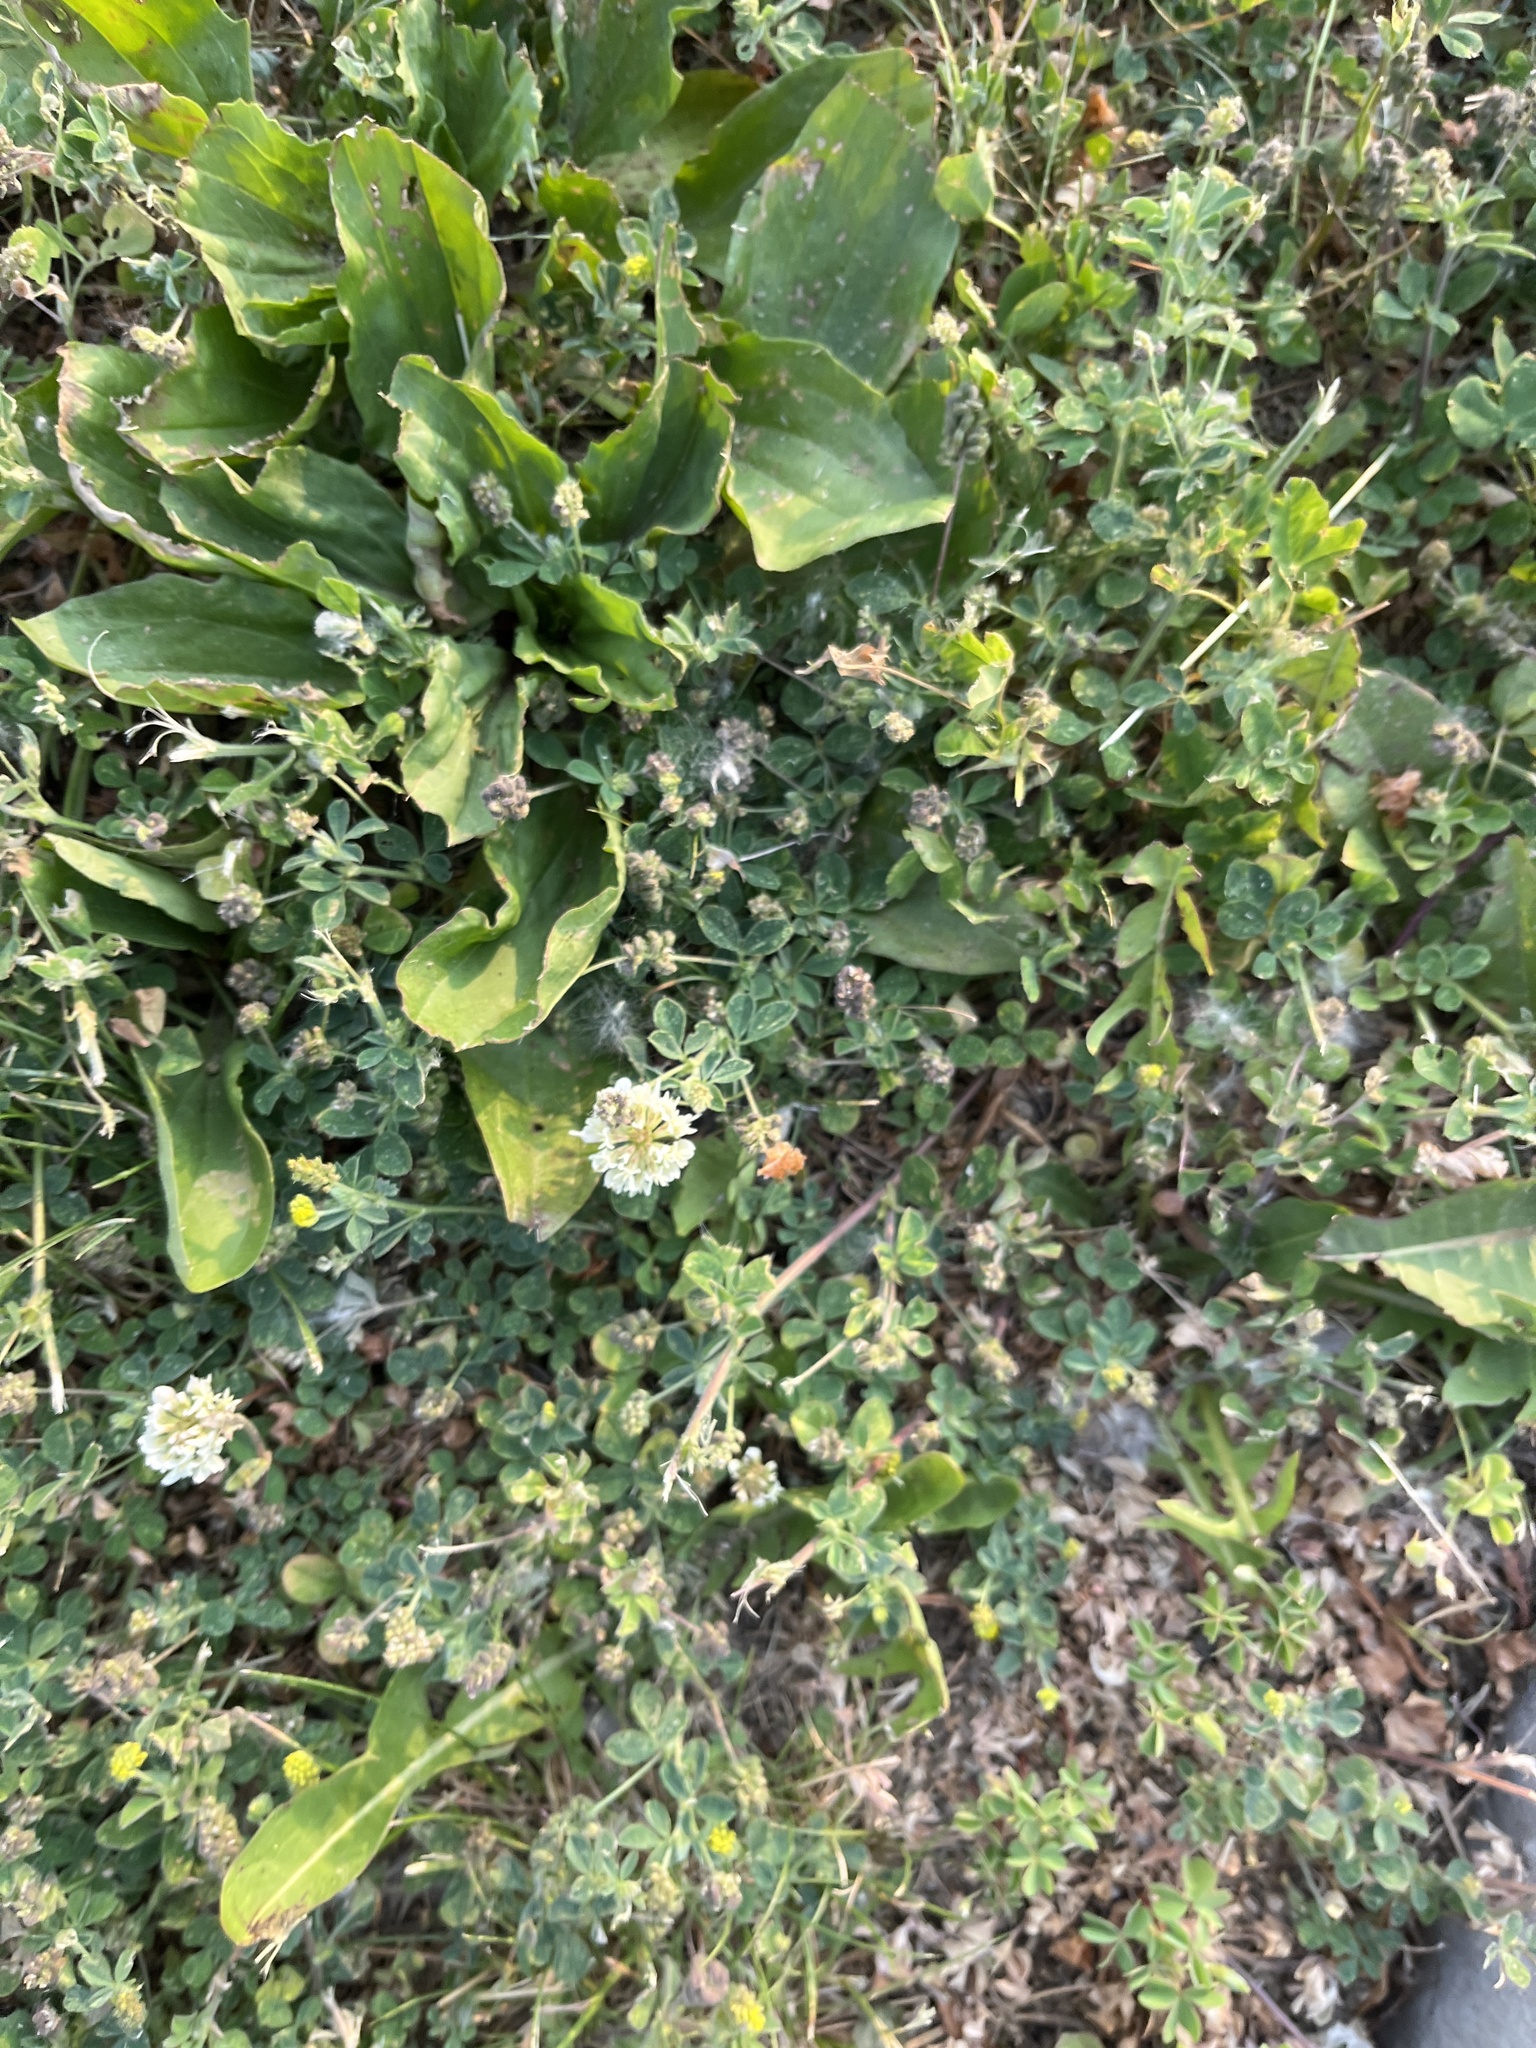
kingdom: Plantae
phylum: Tracheophyta
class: Magnoliopsida
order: Fabales
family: Fabaceae
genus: Trifolium
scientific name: Trifolium repens
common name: White clover
